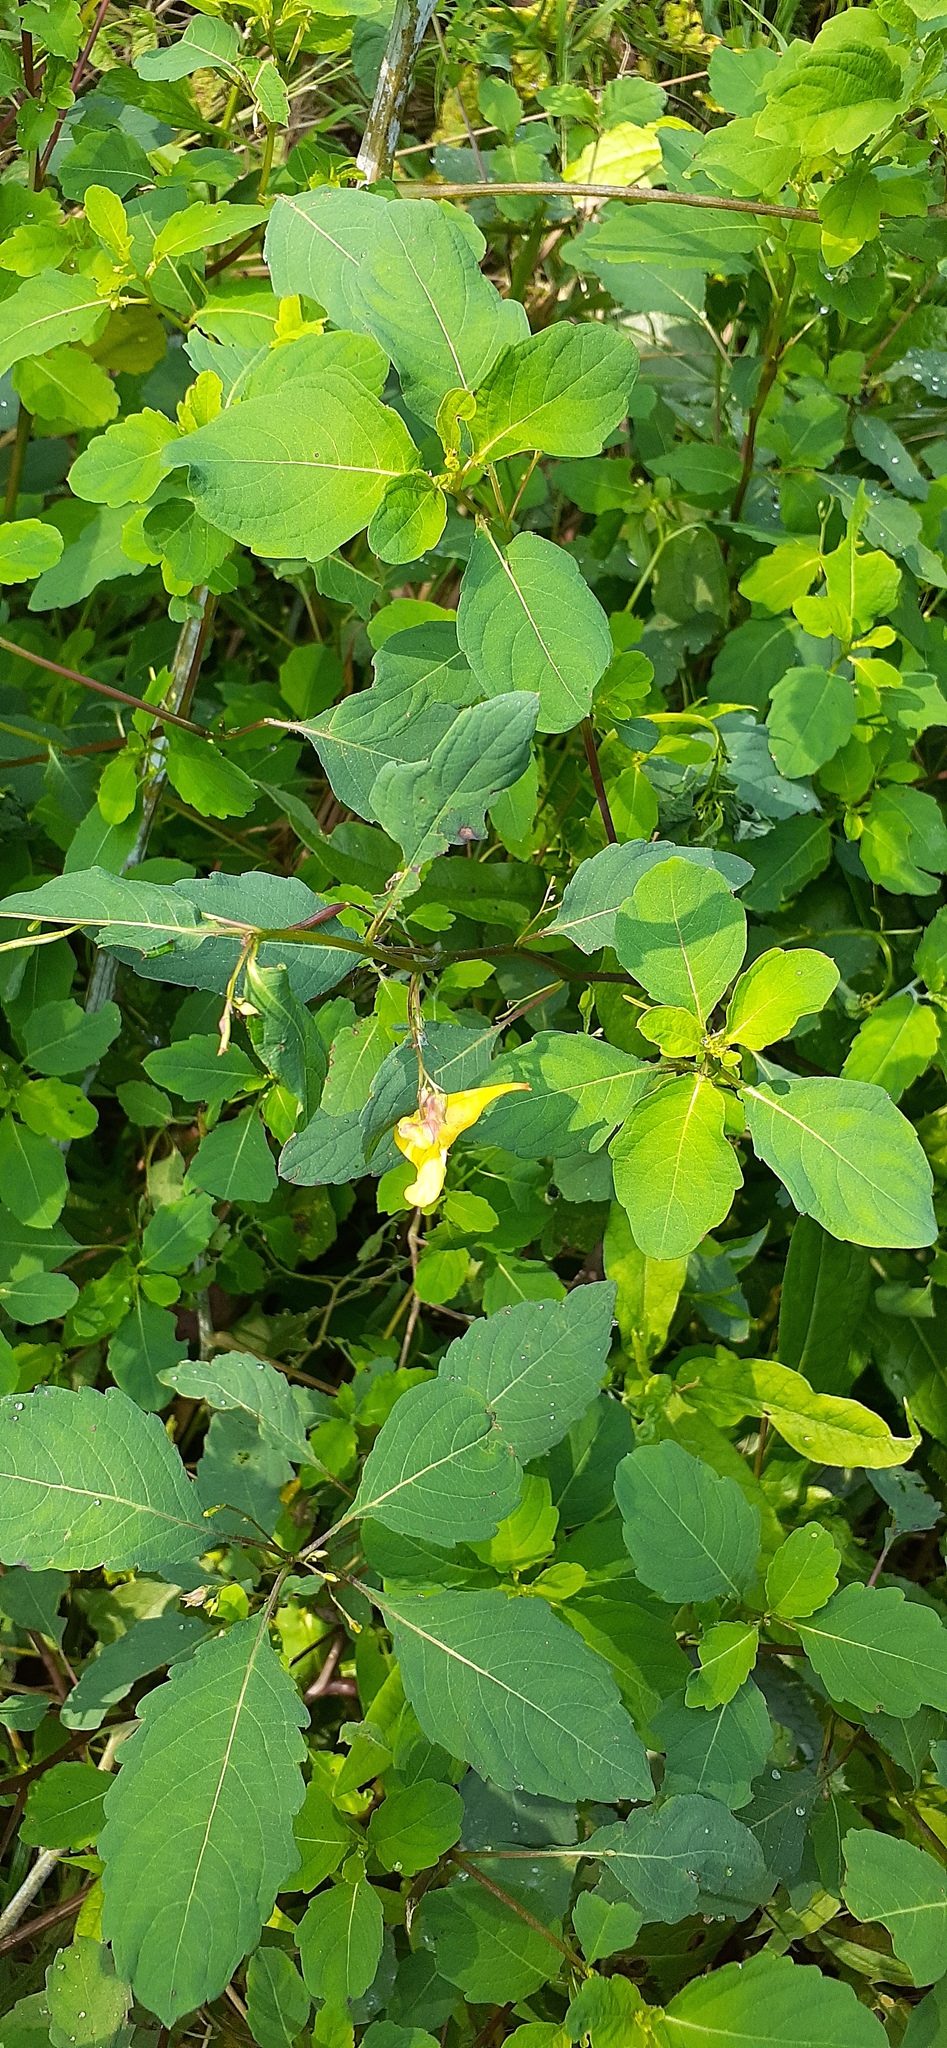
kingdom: Plantae
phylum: Tracheophyta
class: Magnoliopsida
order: Ericales
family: Balsaminaceae
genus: Impatiens
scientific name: Impatiens noli-tangere
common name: Touch-me-not balsam
